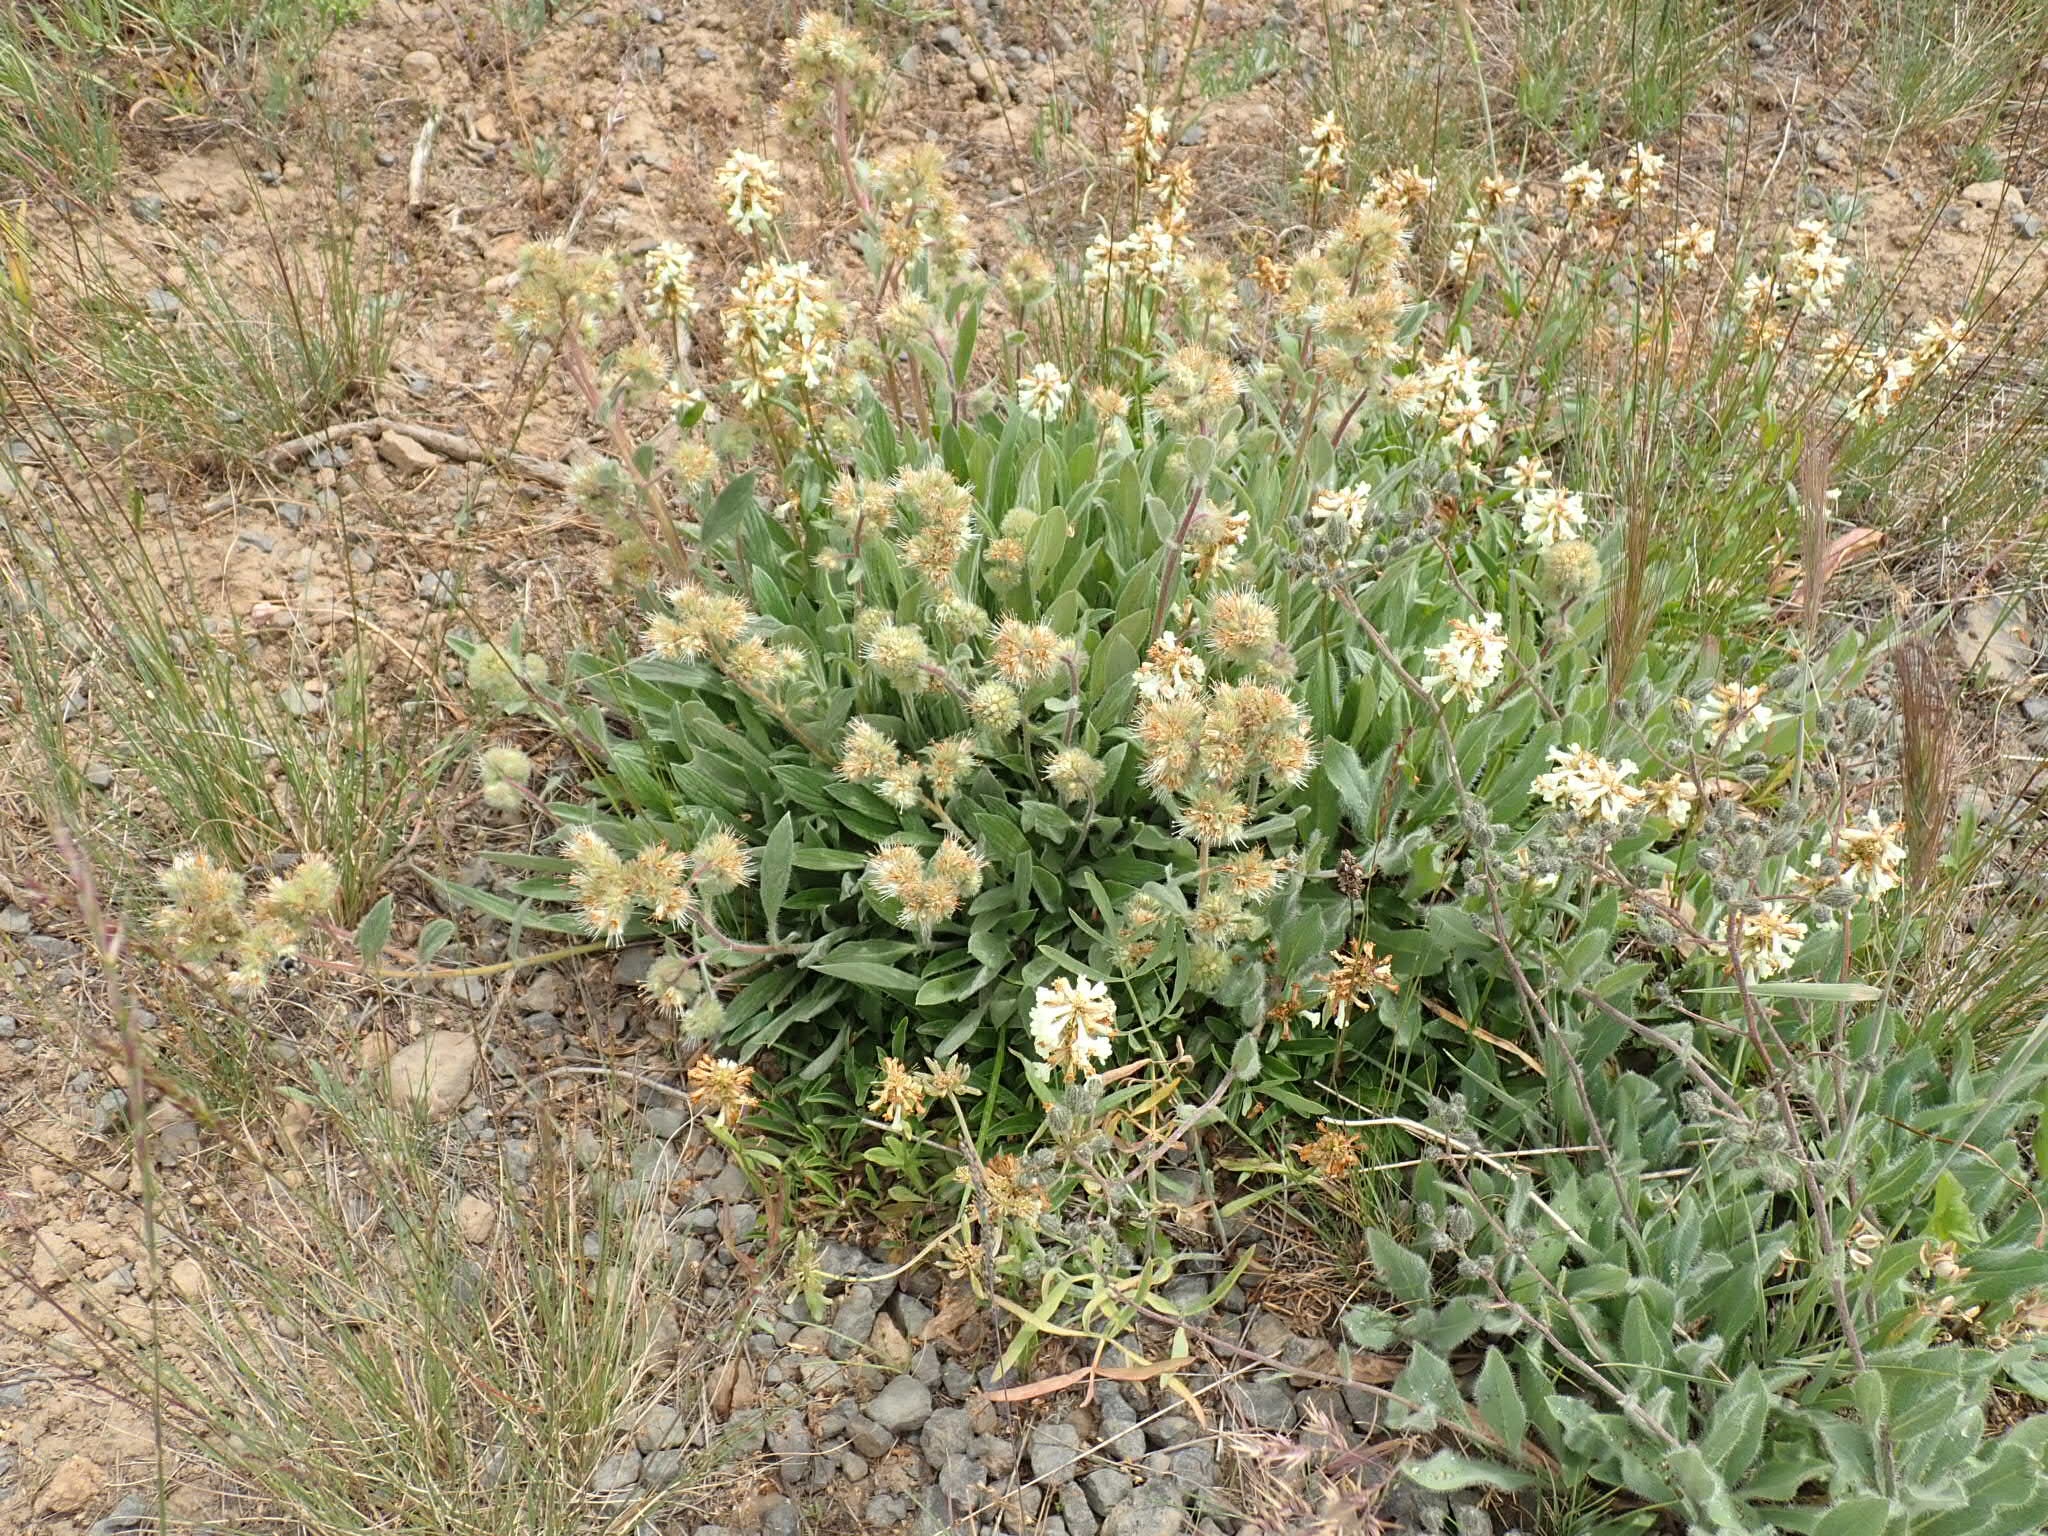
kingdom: Plantae
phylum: Tracheophyta
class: Magnoliopsida
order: Boraginales
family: Hydrophyllaceae
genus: Phacelia
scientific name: Phacelia hastata
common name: Silver-leaved phacelia
